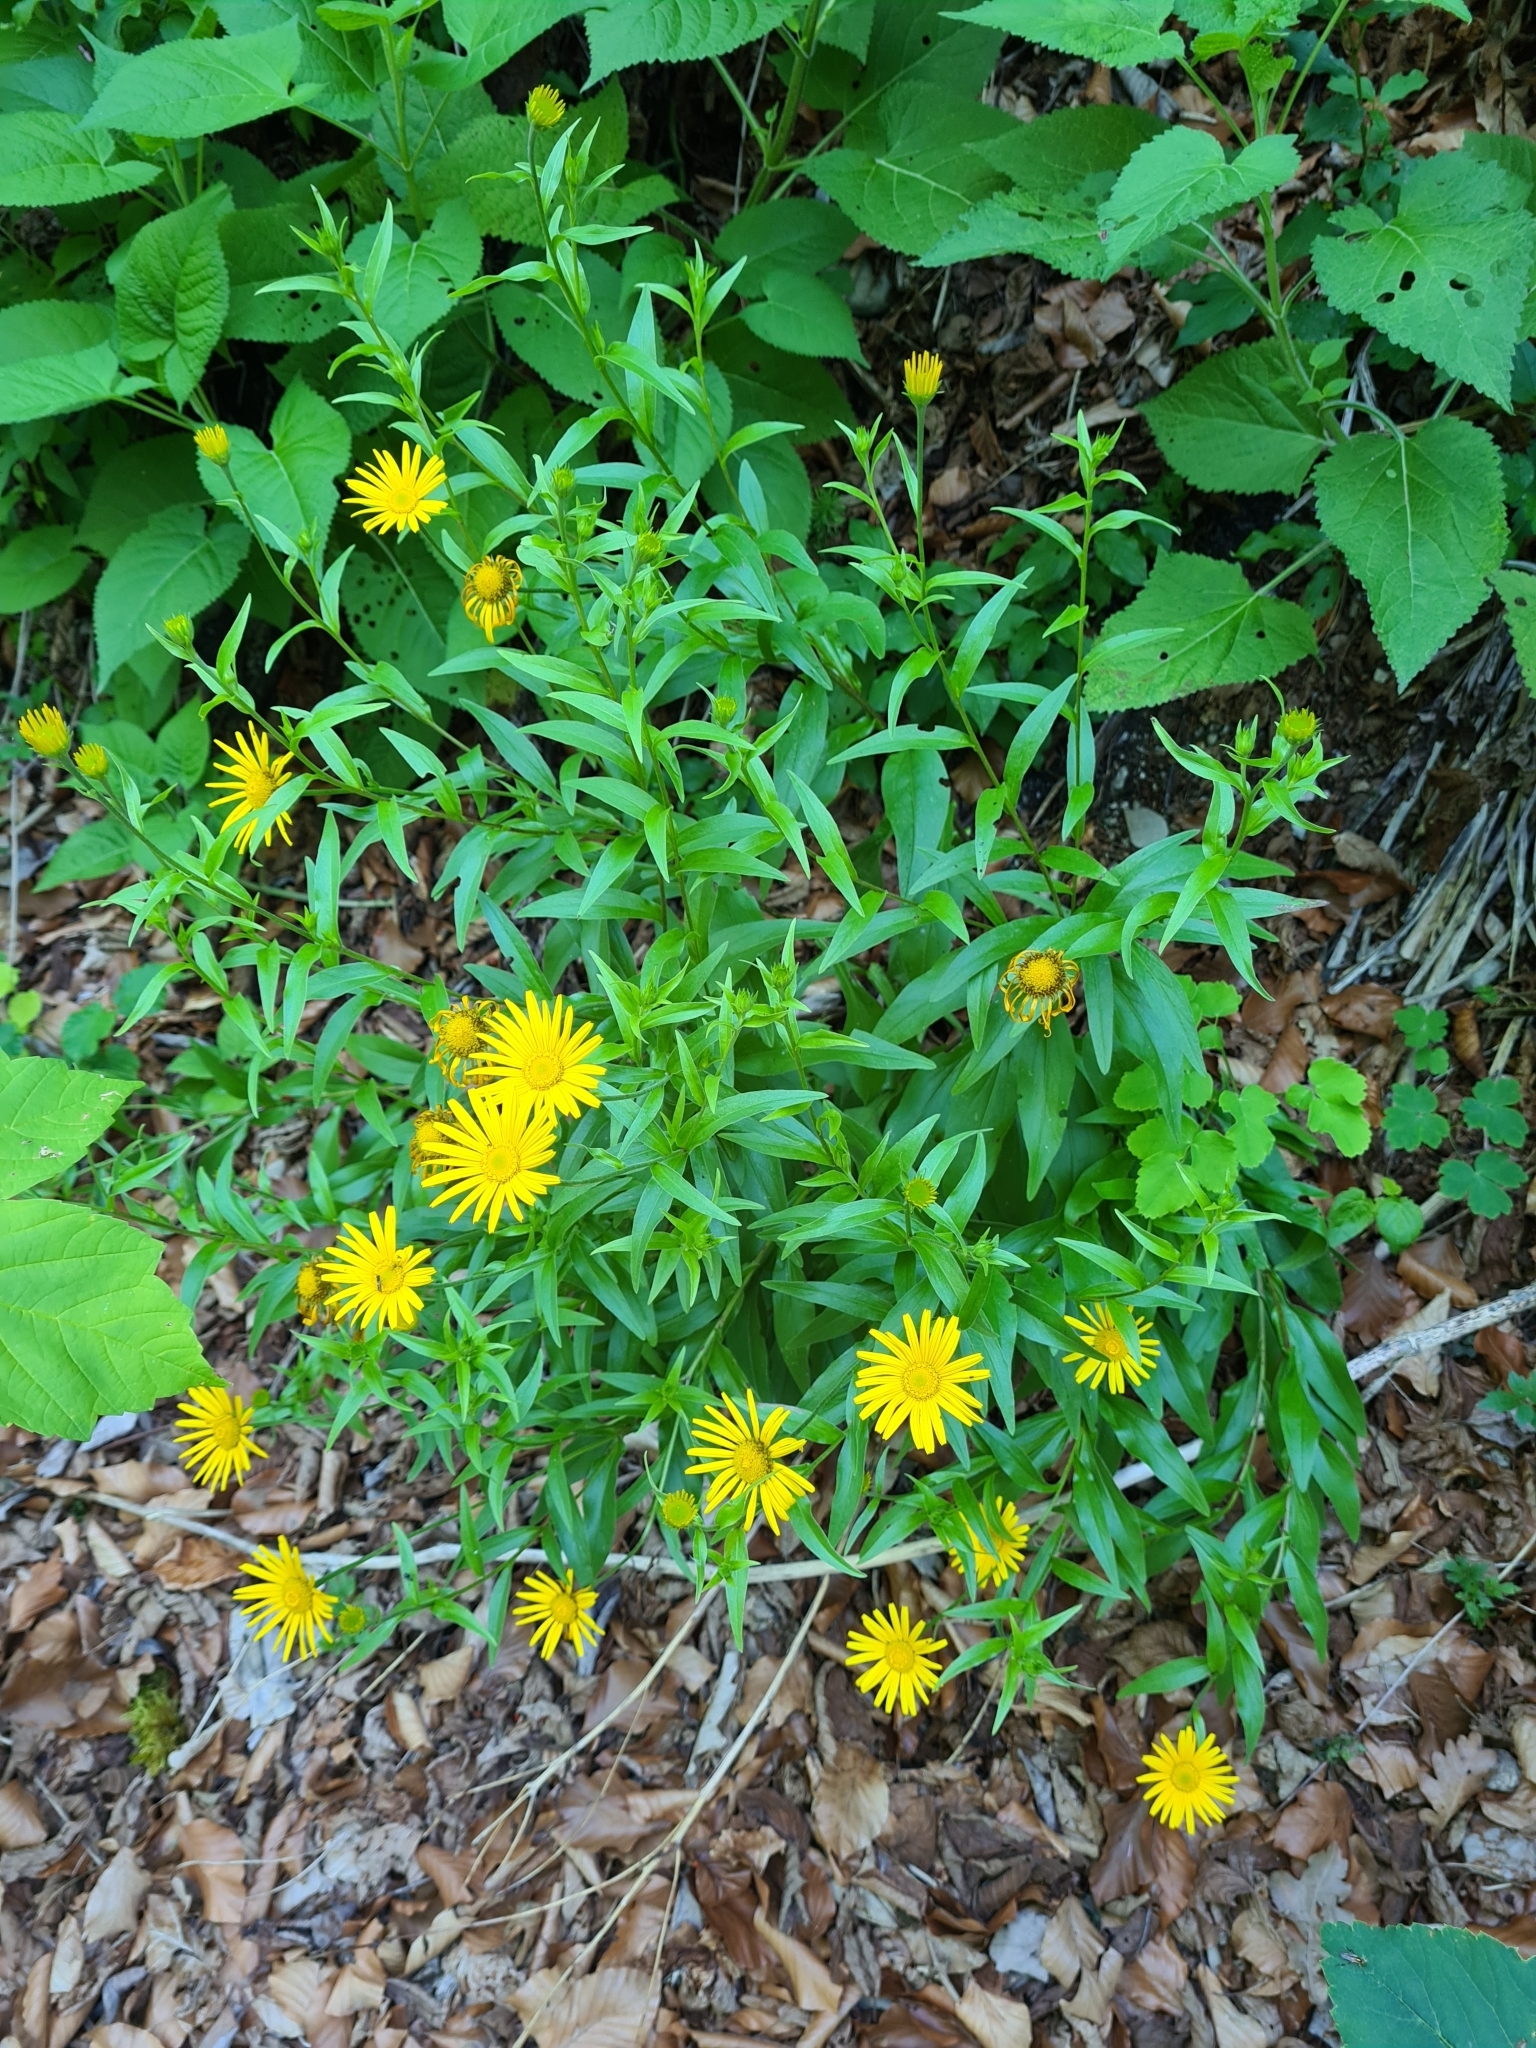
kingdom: Plantae
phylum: Tracheophyta
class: Magnoliopsida
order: Asterales
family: Asteraceae
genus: Buphthalmum
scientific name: Buphthalmum salicifolium
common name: Willow-leaved yellow-oxeye
